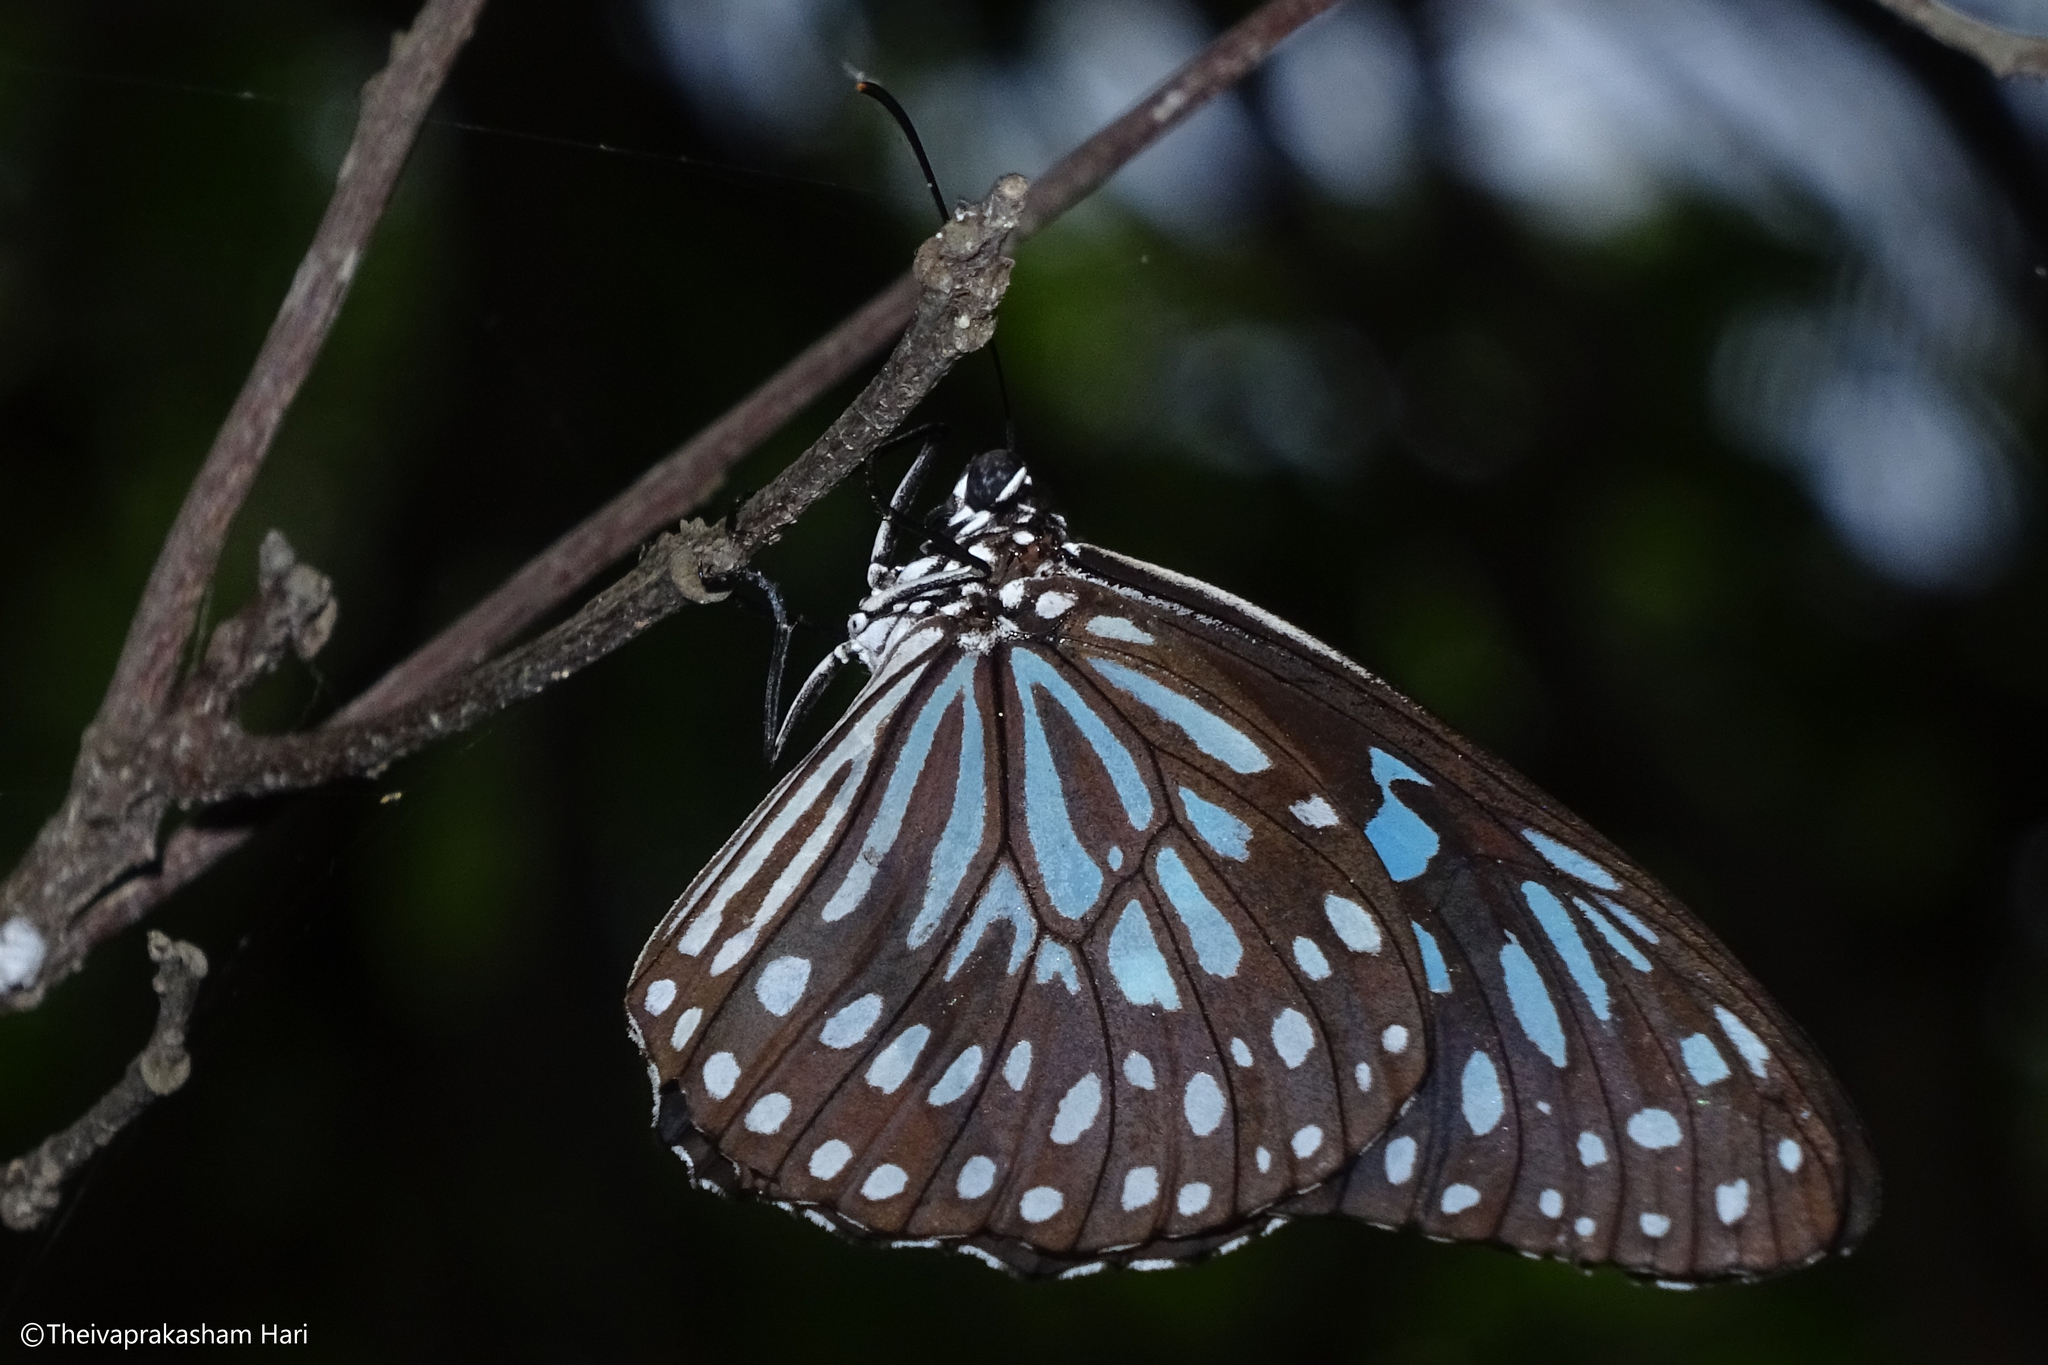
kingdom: Animalia
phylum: Arthropoda
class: Insecta
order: Lepidoptera
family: Nymphalidae
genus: Tirumala
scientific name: Tirumala septentrionis
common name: Dark blue tiger butterfly
